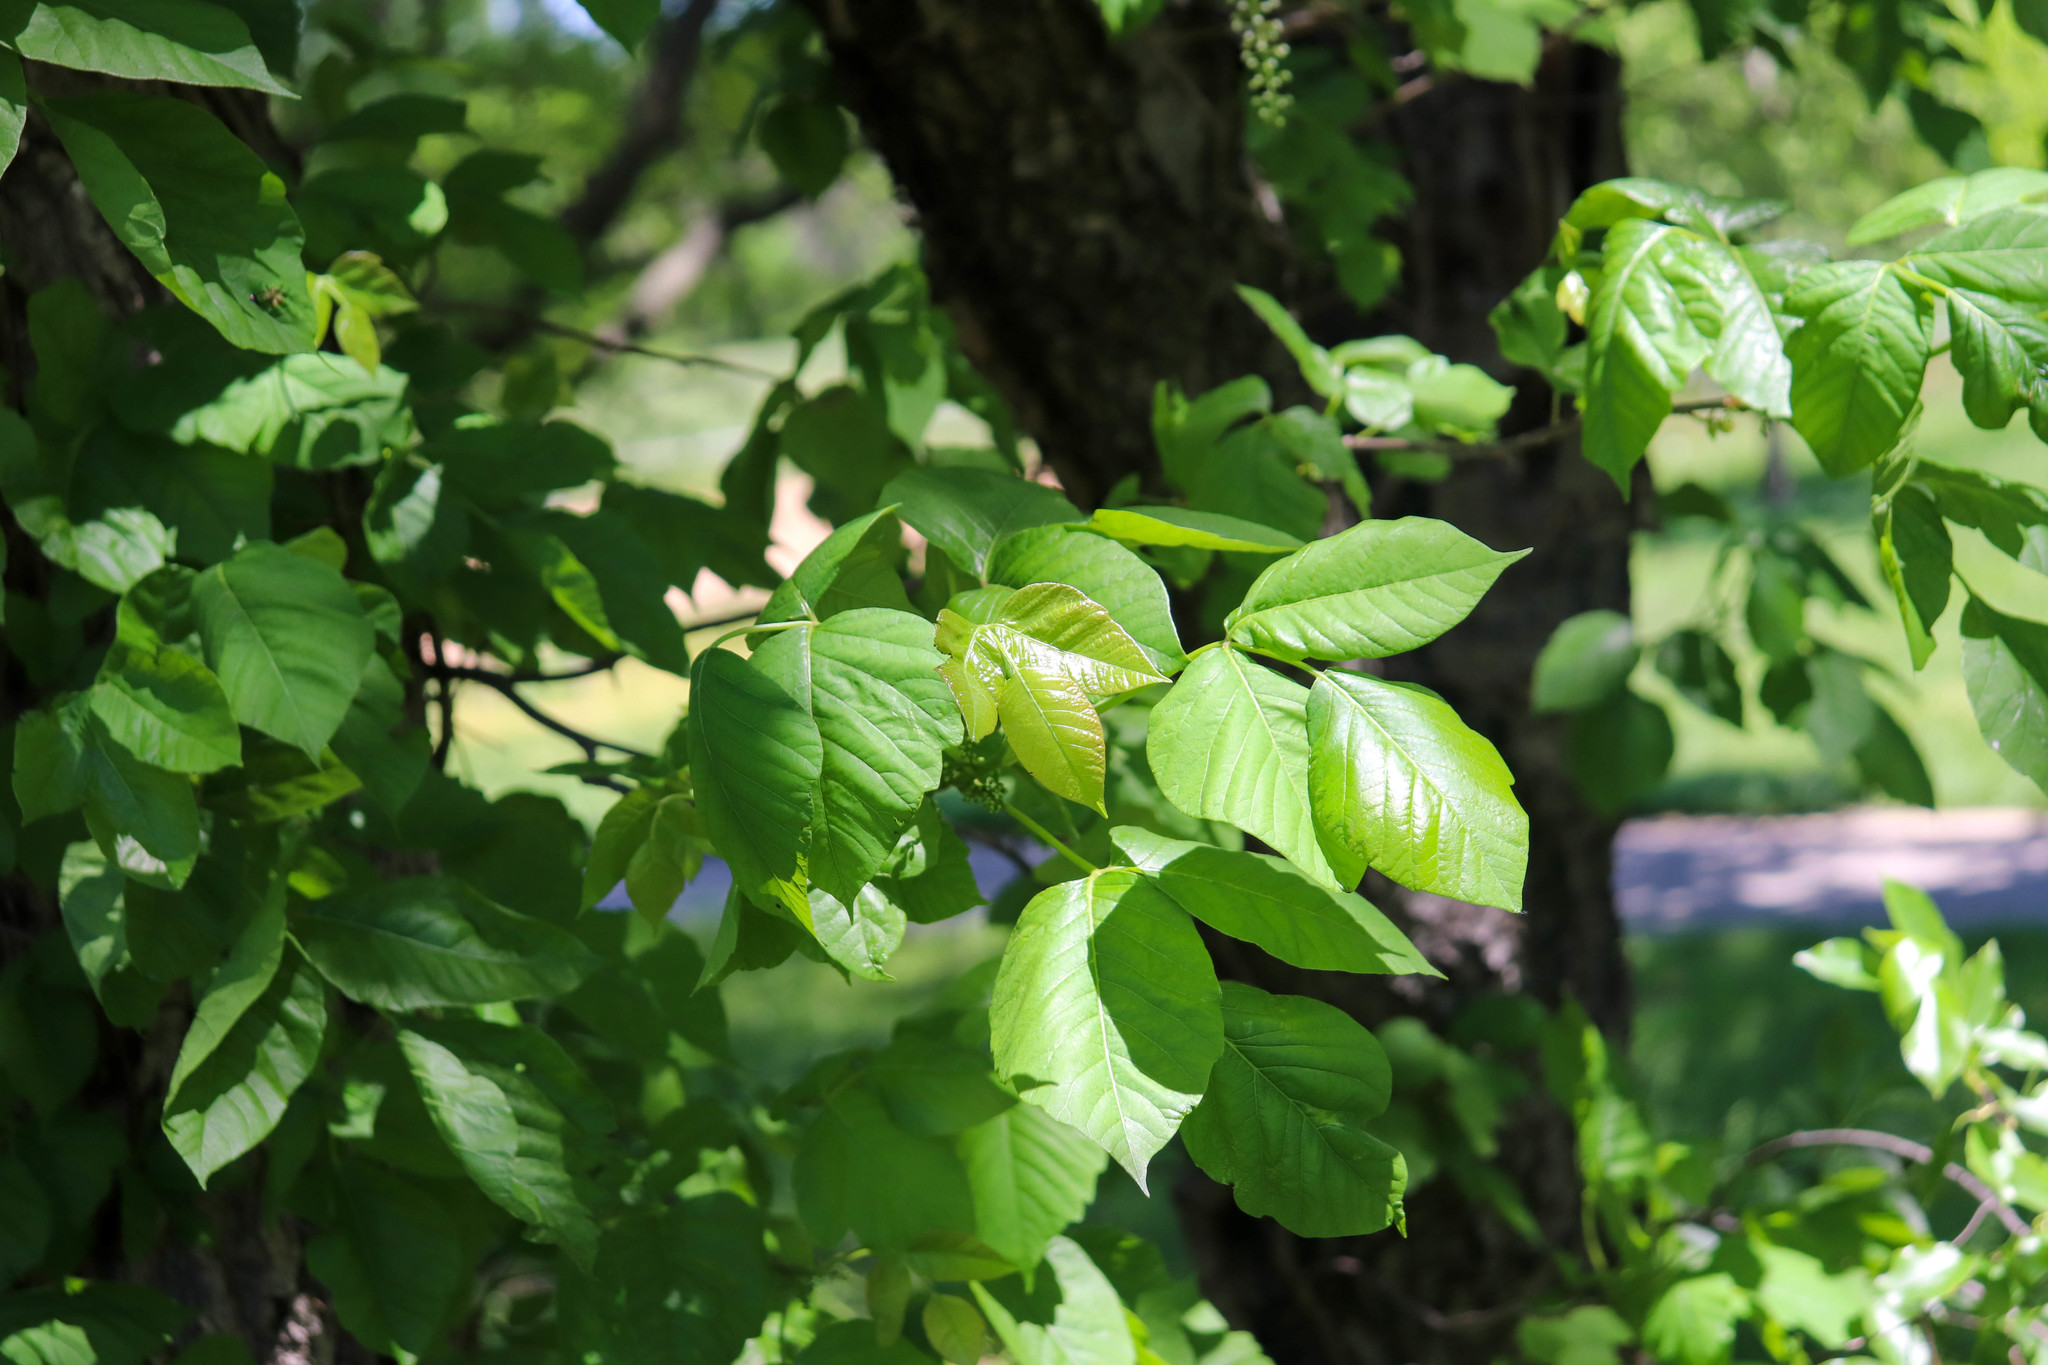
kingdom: Plantae
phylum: Tracheophyta
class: Magnoliopsida
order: Sapindales
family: Anacardiaceae
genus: Toxicodendron
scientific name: Toxicodendron radicans
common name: Poison ivy
